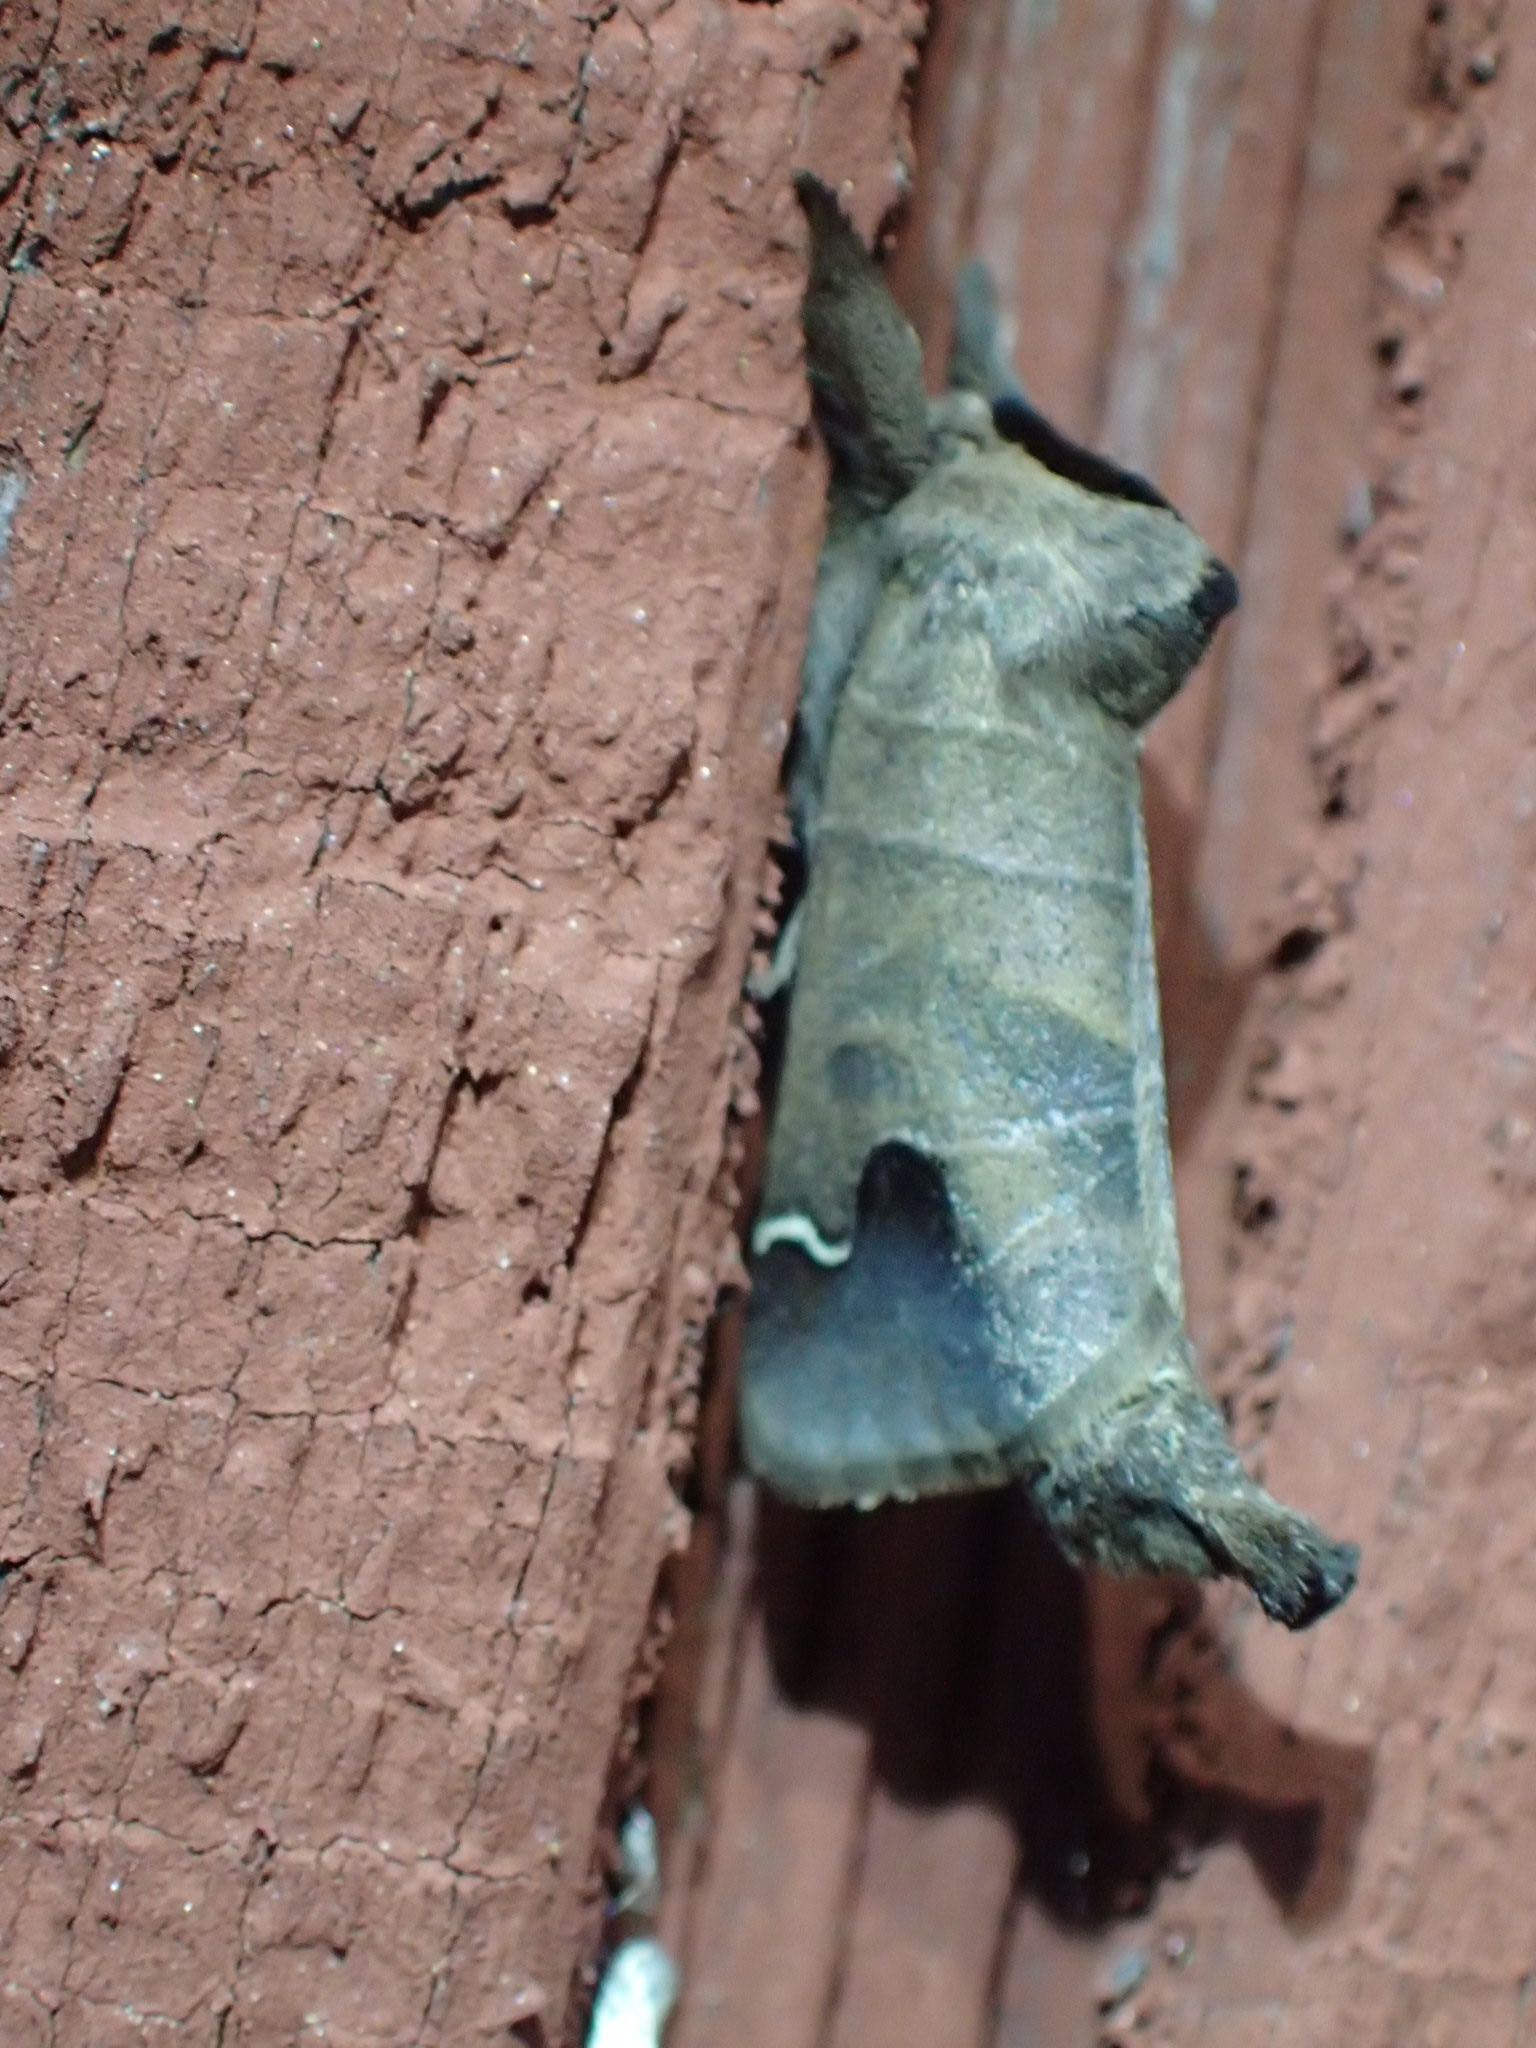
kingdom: Animalia
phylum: Arthropoda
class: Insecta
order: Lepidoptera
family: Notodontidae
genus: Clostera
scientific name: Clostera albosigma
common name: Sigmoid prominent
